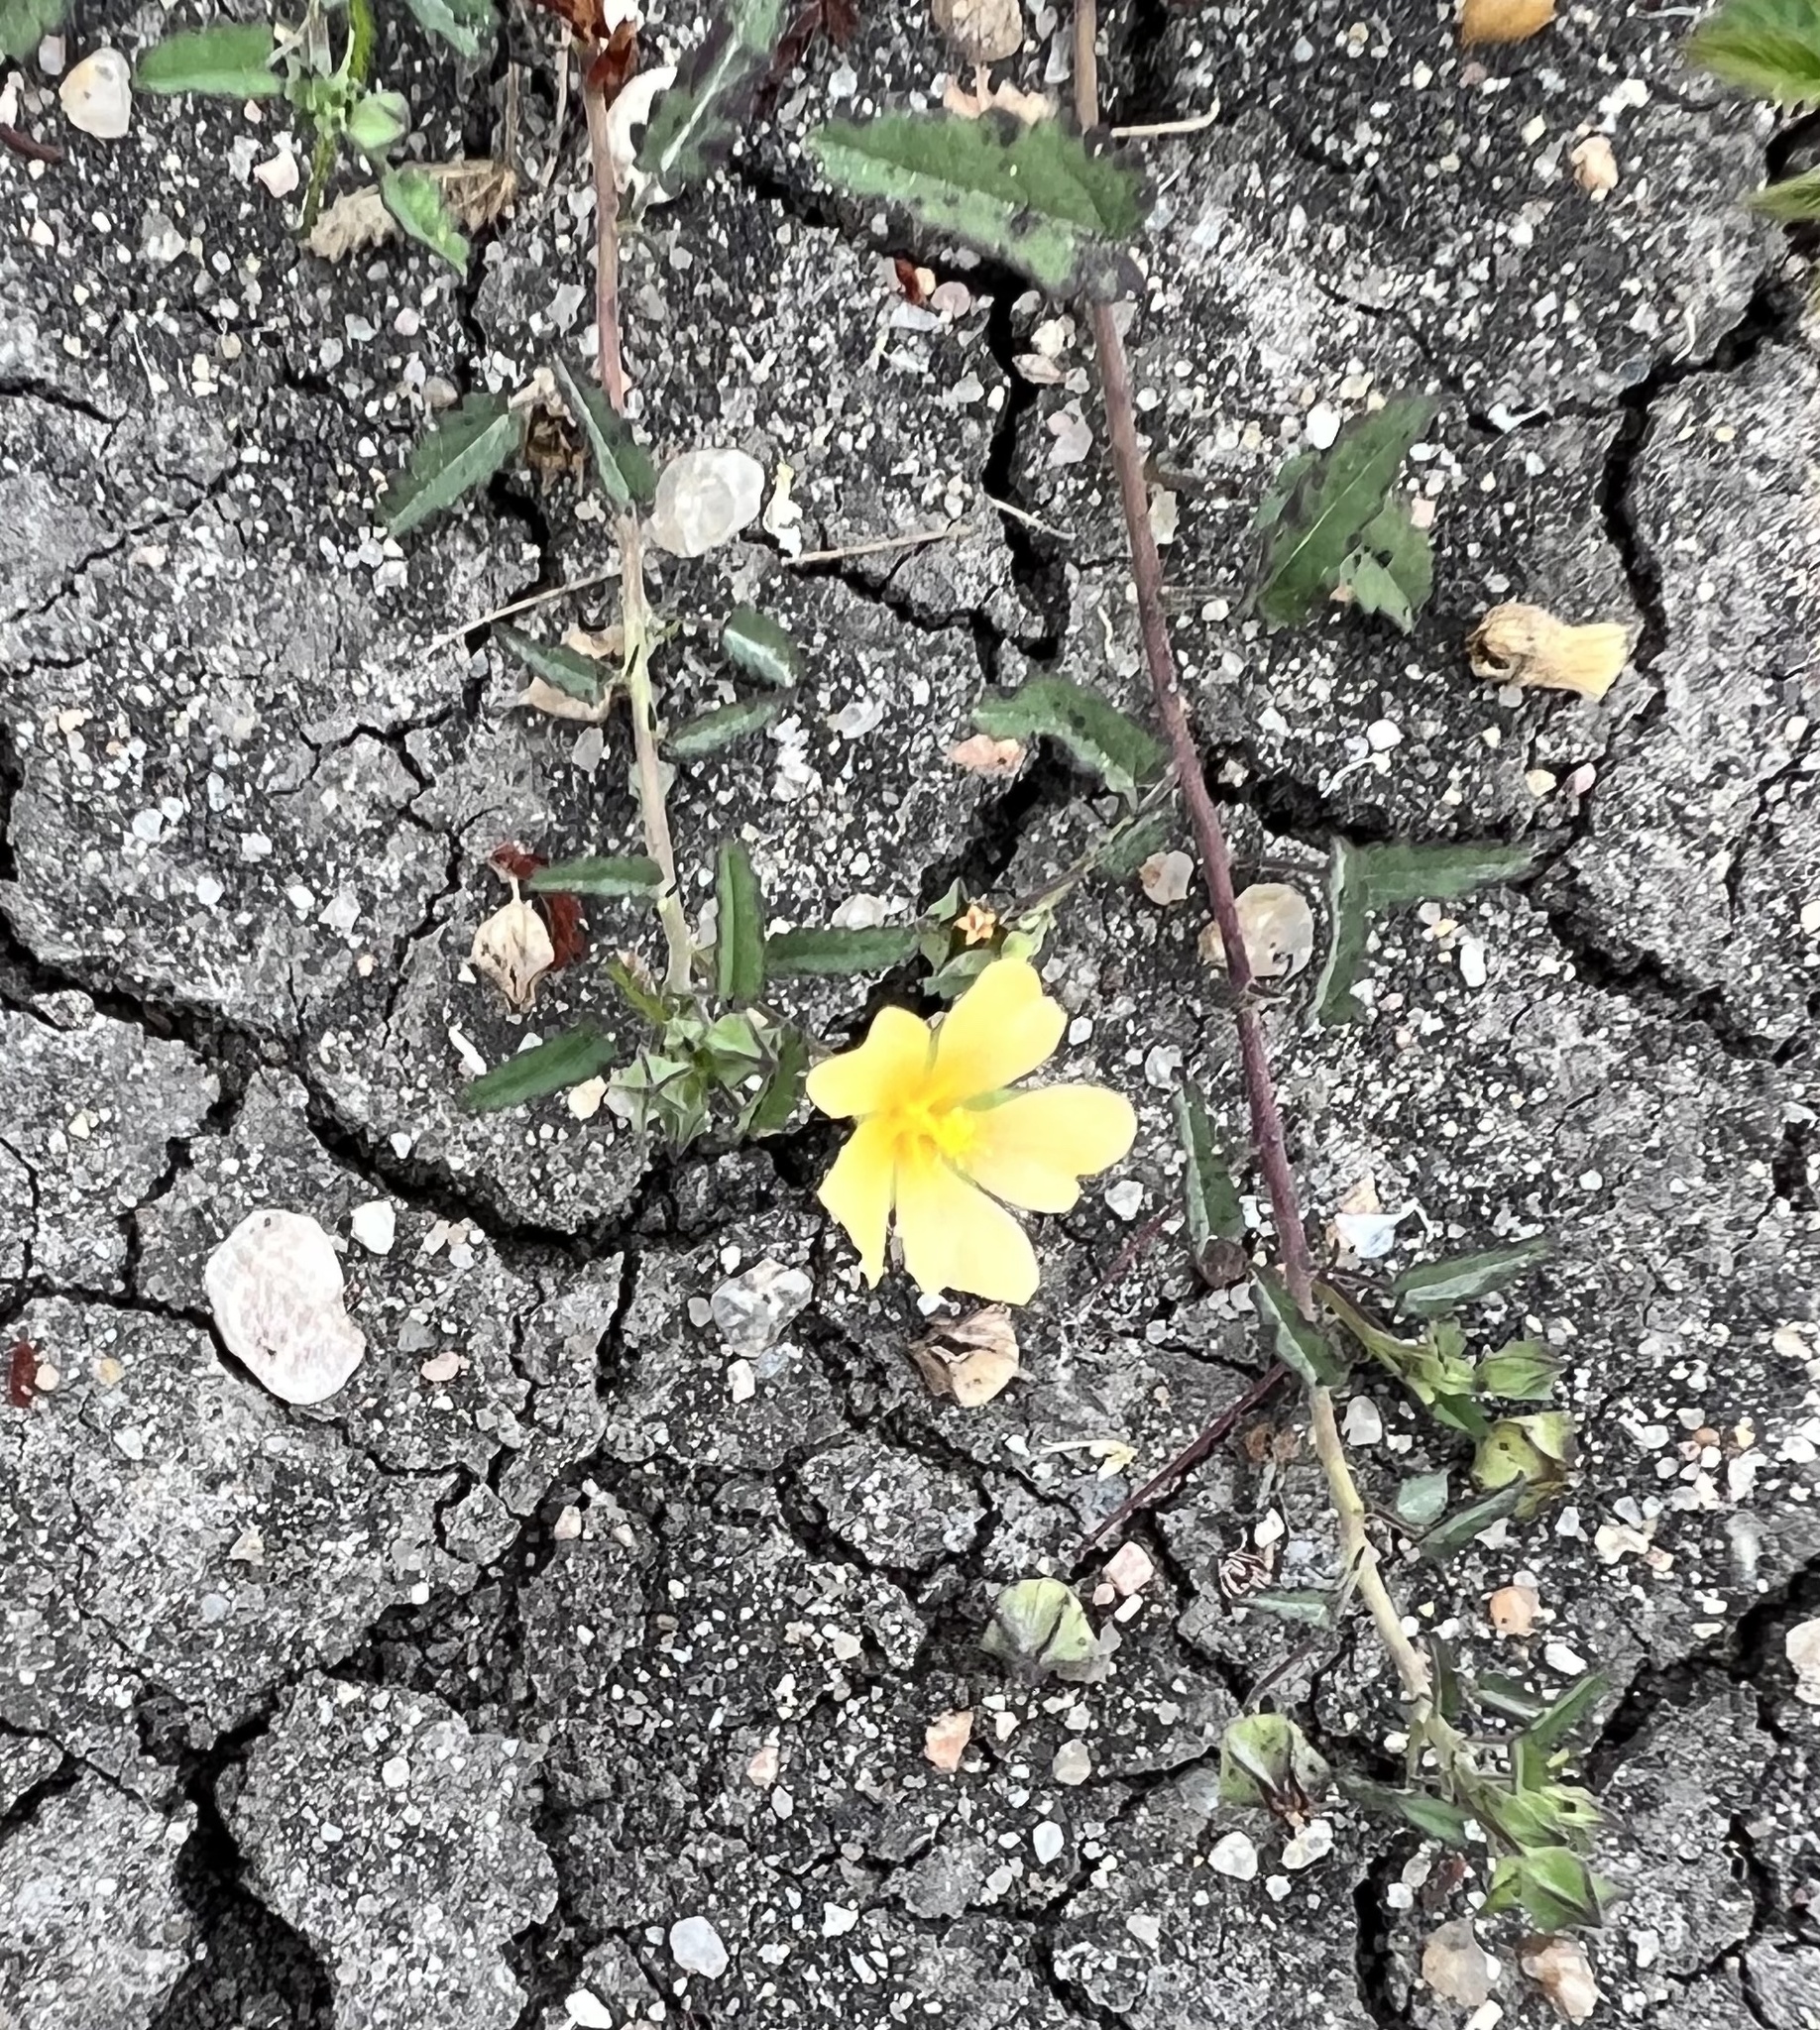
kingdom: Plantae
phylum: Tracheophyta
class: Magnoliopsida
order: Malvales
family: Malvaceae
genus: Sida
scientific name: Sida abutilifolia
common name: Spreading fanpetals
